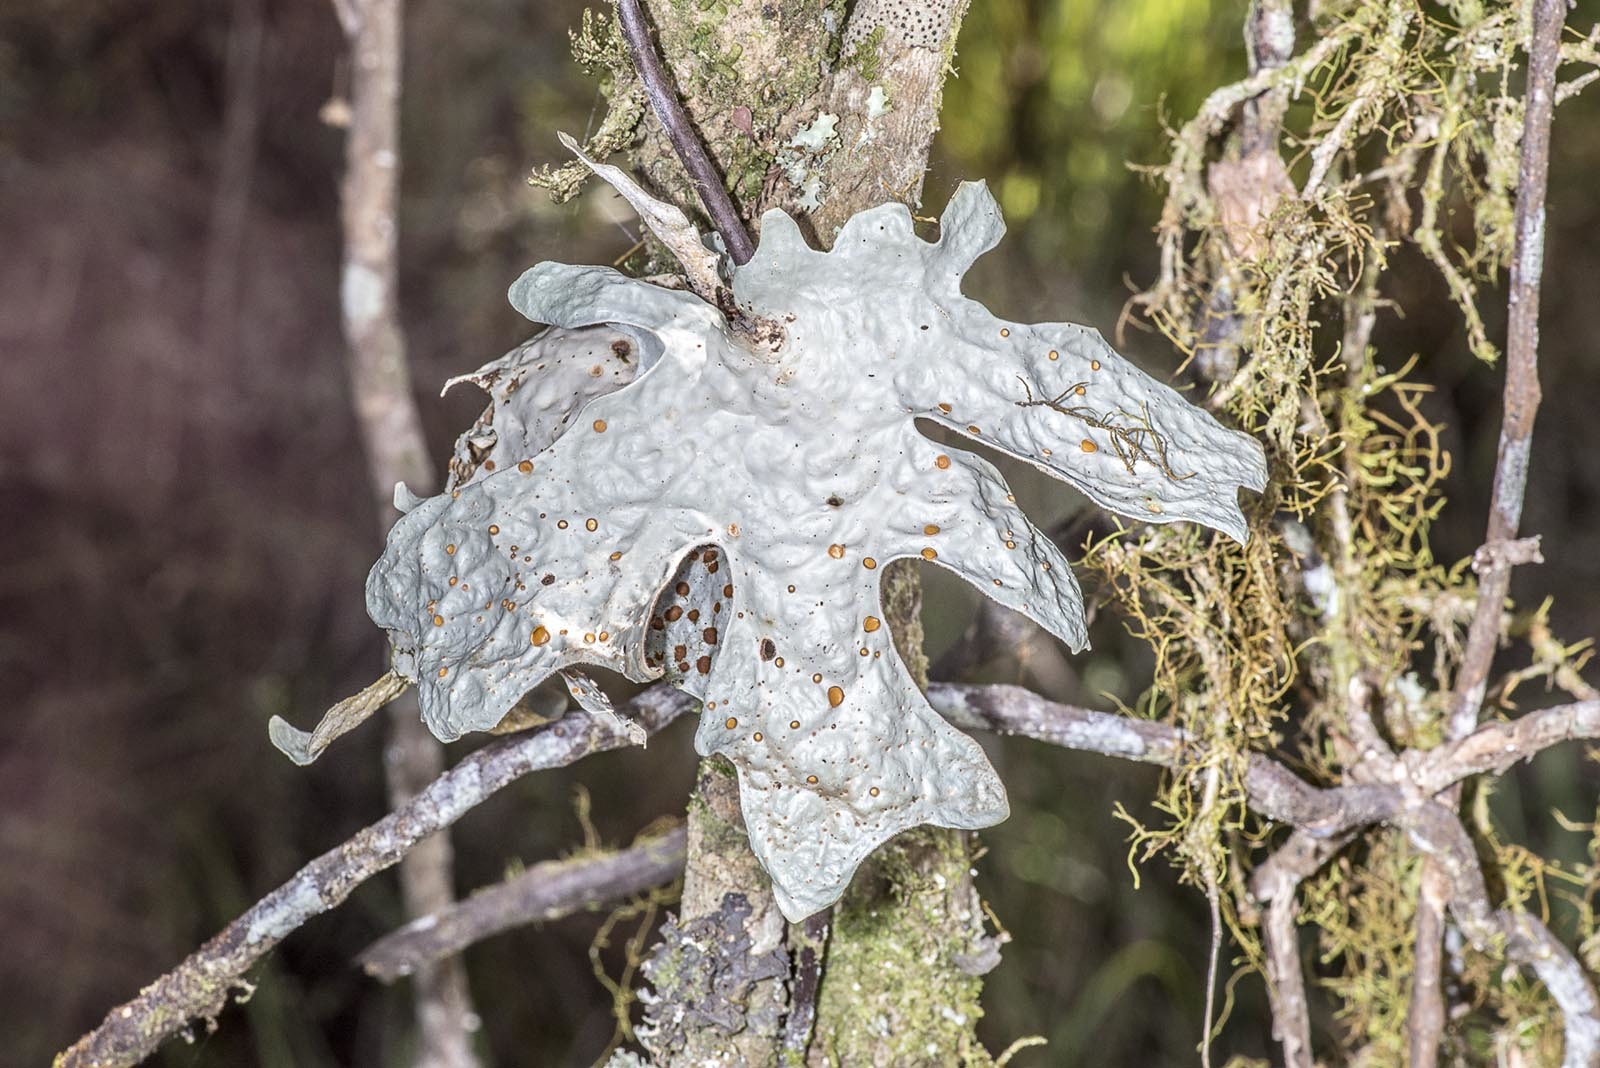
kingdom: Fungi
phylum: Ascomycota
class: Lecanoromycetes
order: Peltigerales
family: Lobariaceae
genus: Sticta
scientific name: Sticta latifrons
